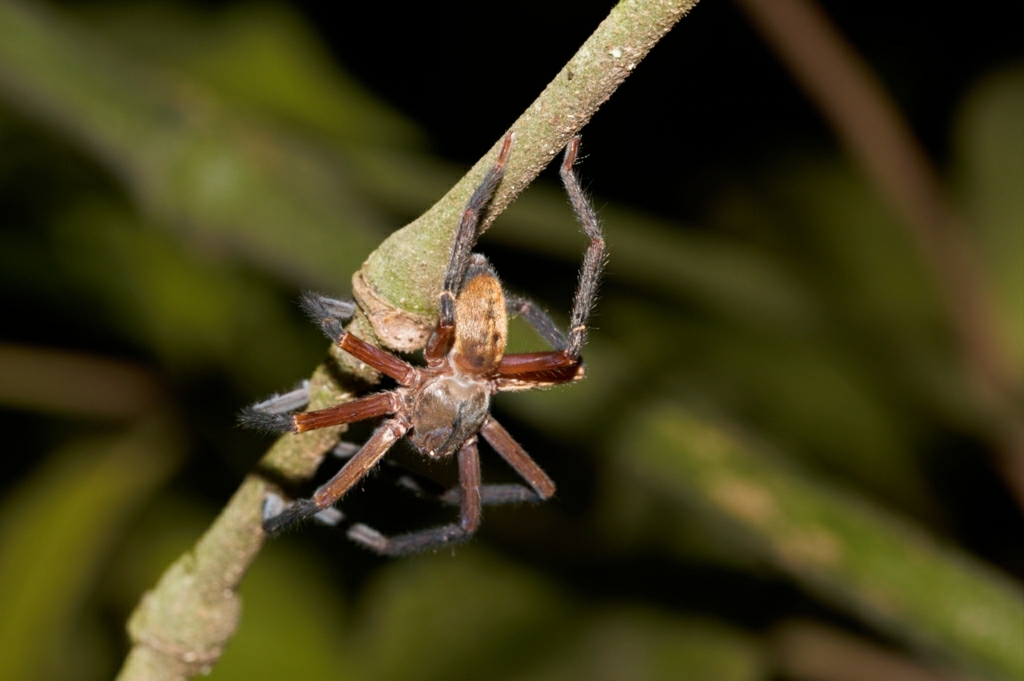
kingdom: Animalia
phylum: Arthropoda
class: Arachnida
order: Araneae
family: Sparassidae
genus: Sadala
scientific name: Sadala velox
